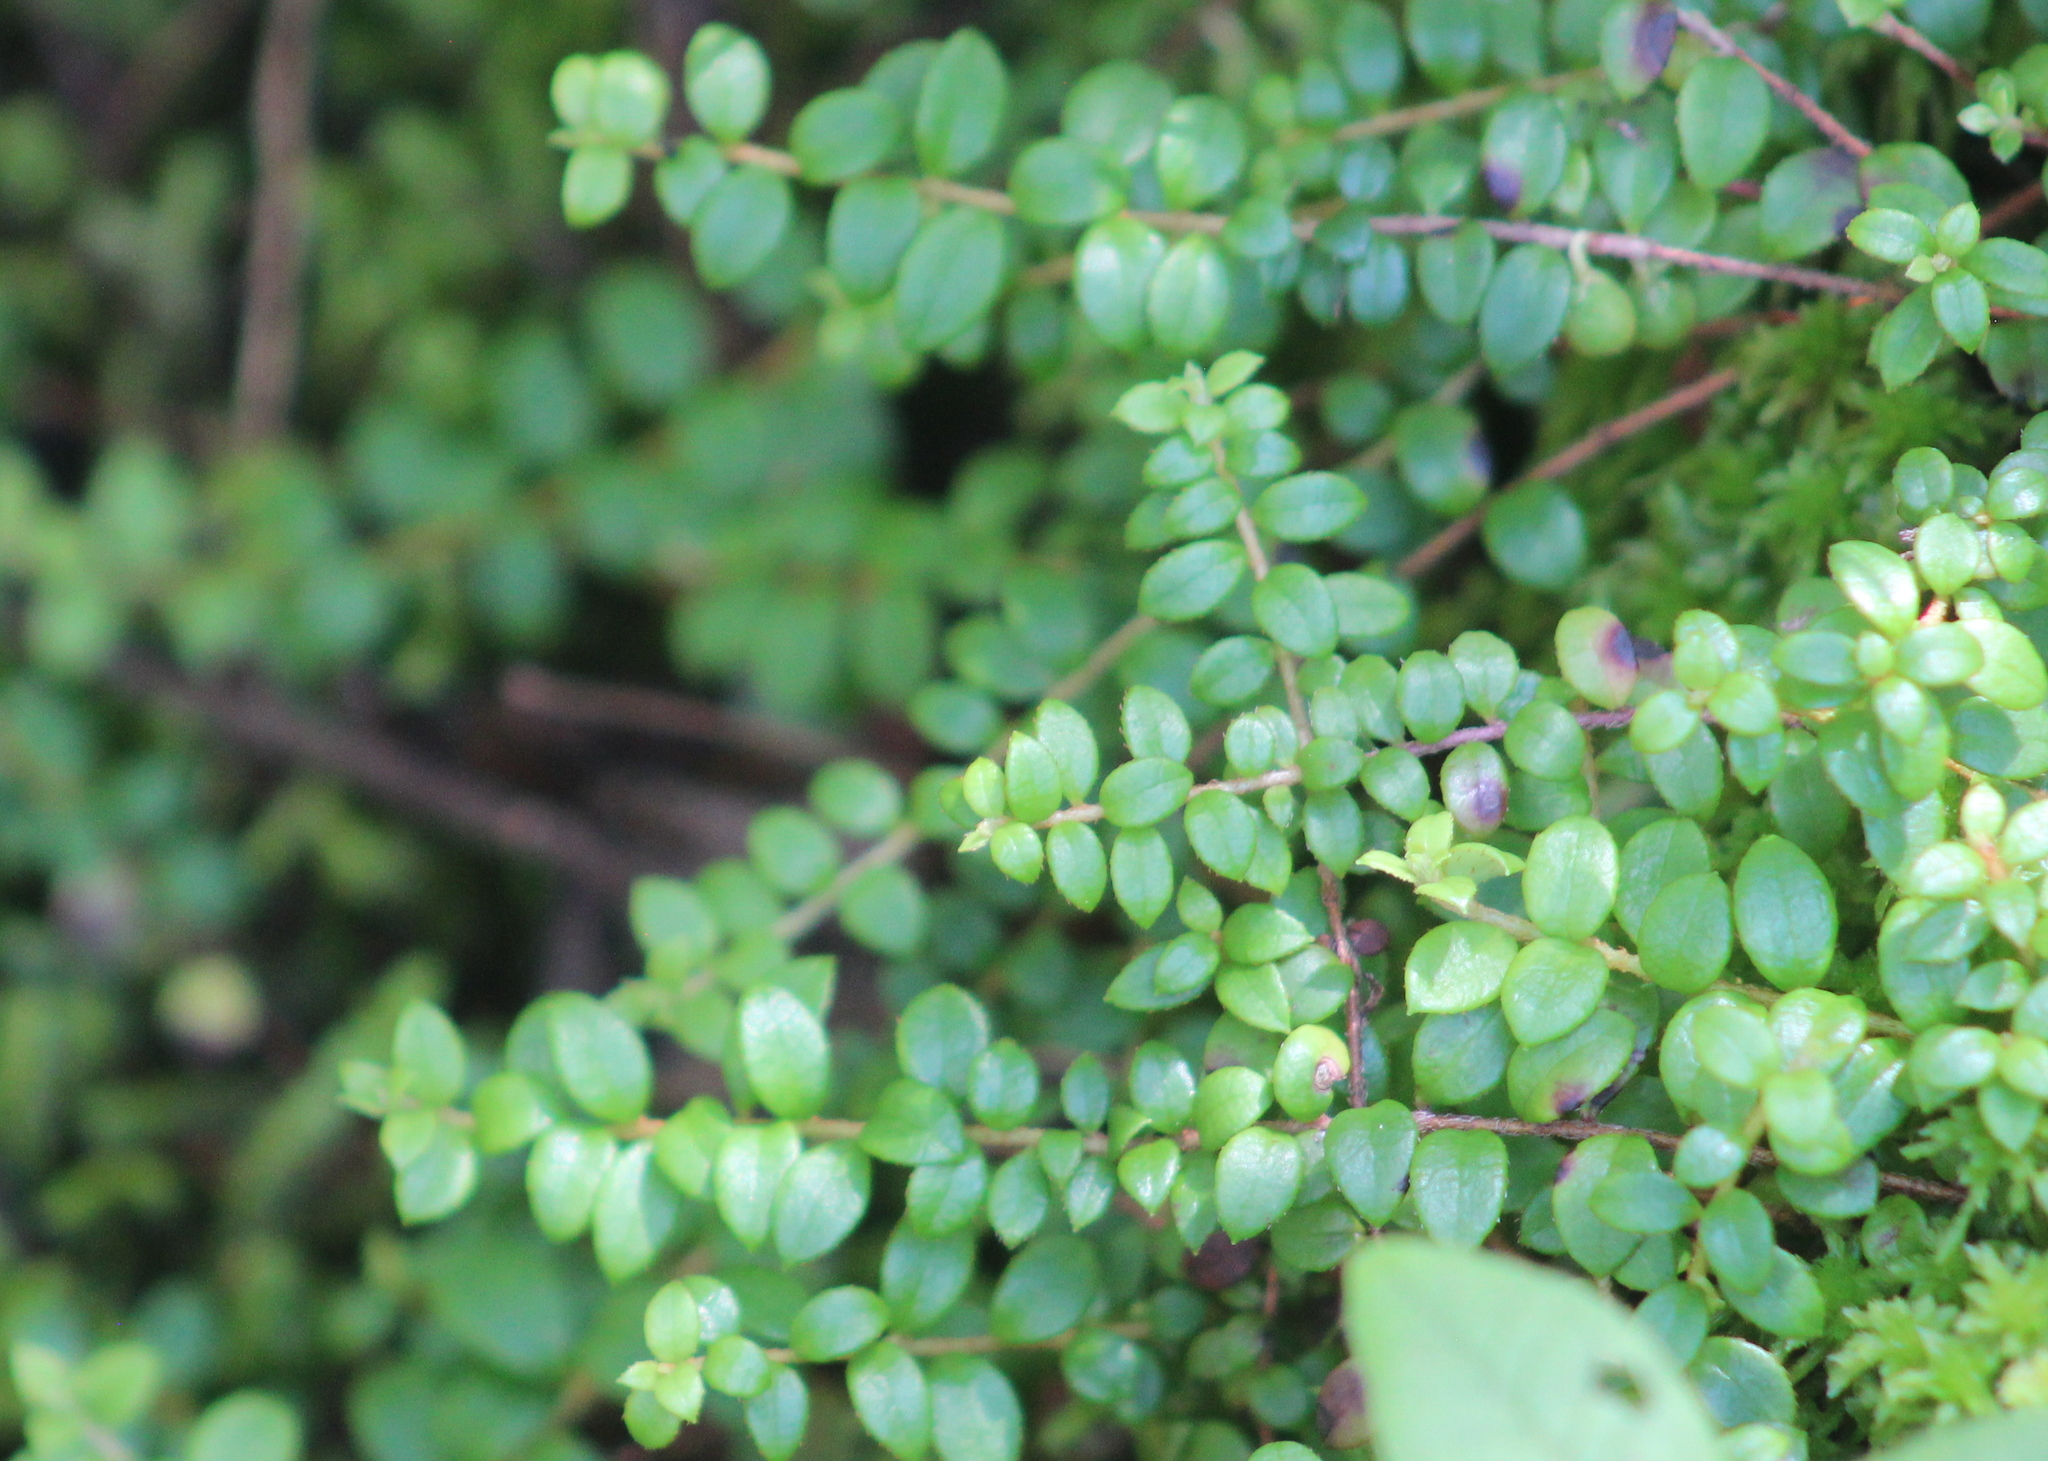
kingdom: Plantae
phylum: Tracheophyta
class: Magnoliopsida
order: Ericales
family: Ericaceae
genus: Gaultheria
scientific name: Gaultheria hispidula
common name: Cancer wintergreen
